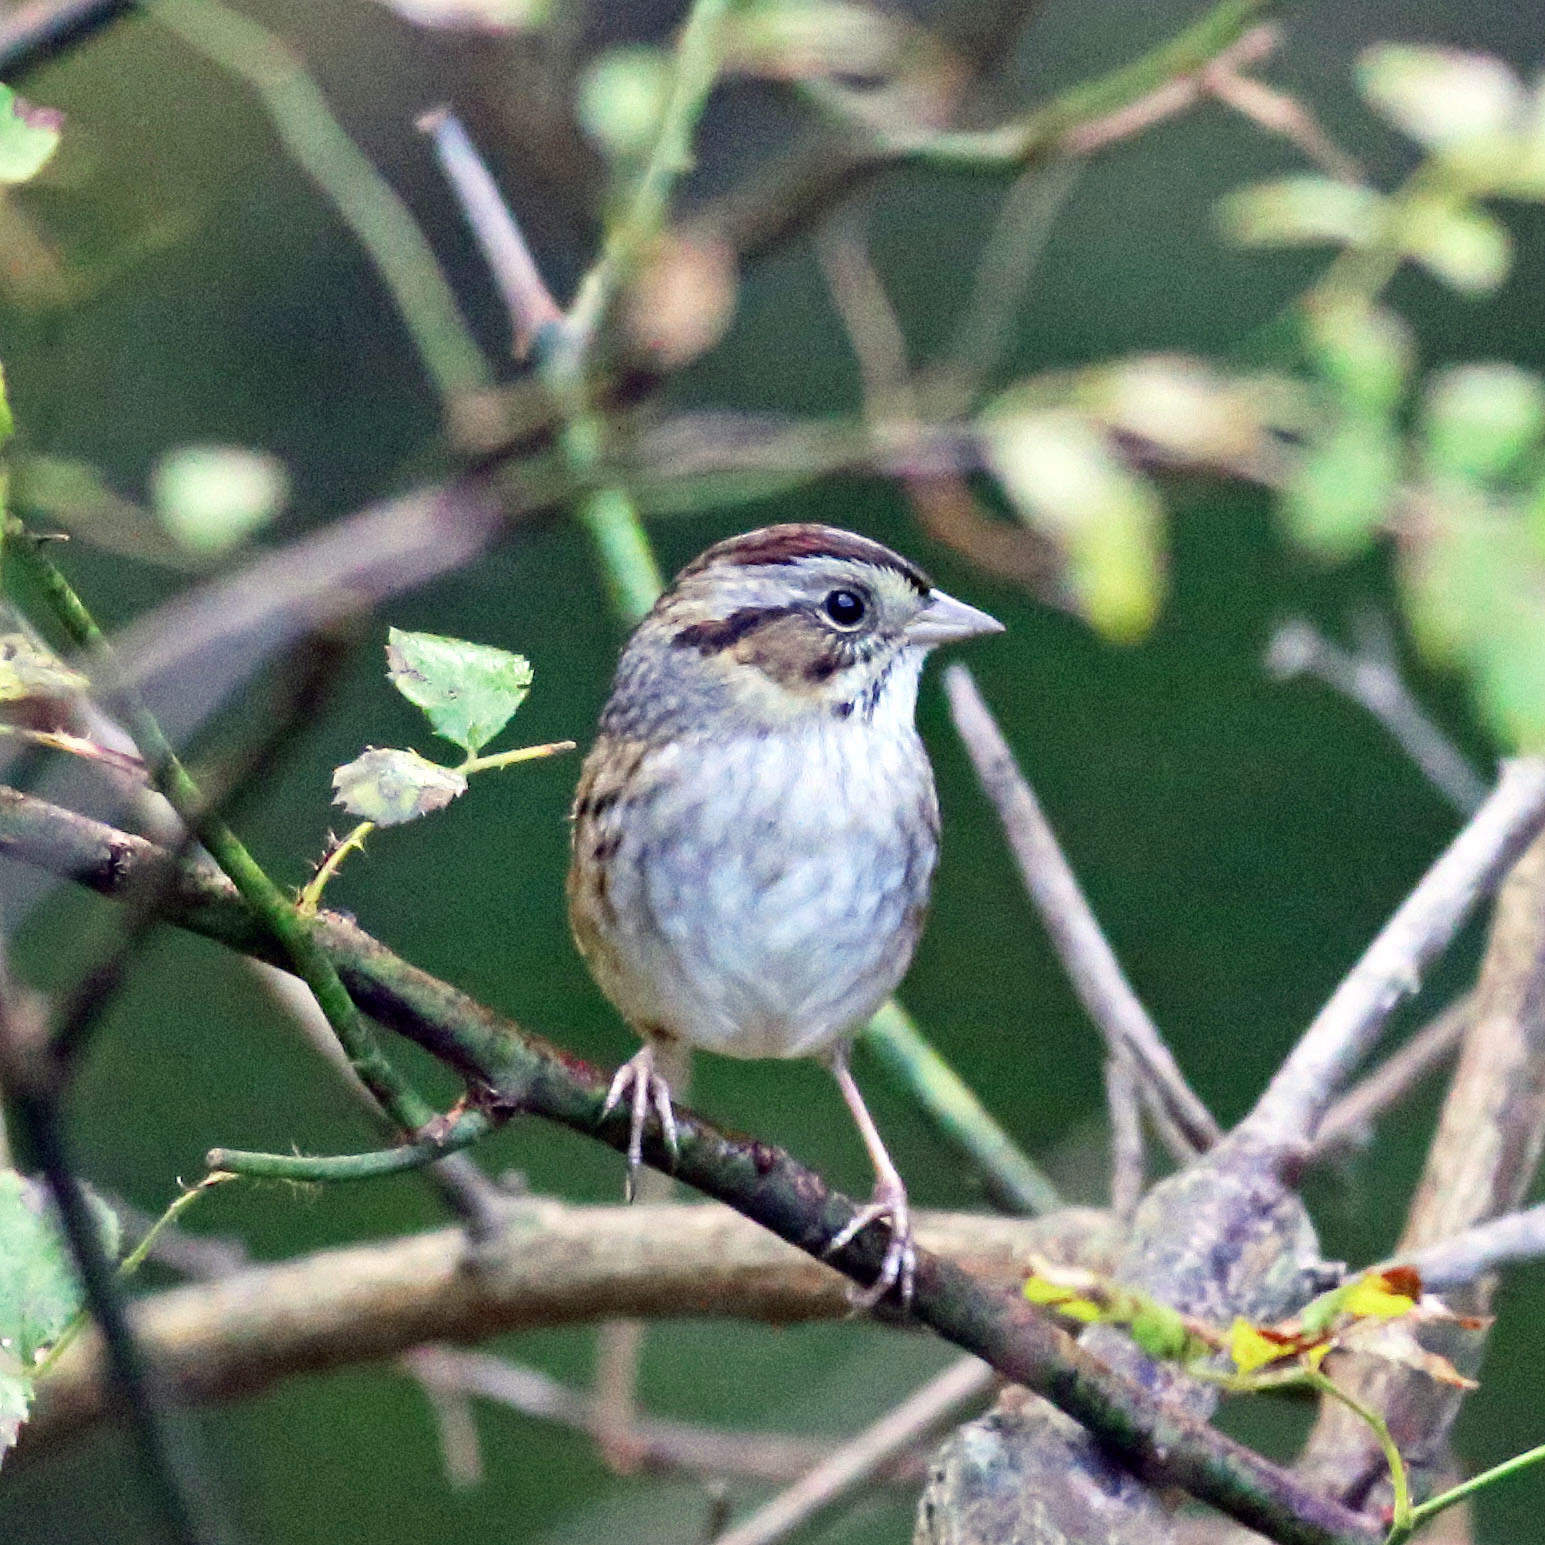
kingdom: Animalia
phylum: Chordata
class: Aves
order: Passeriformes
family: Passerellidae
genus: Melospiza
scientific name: Melospiza georgiana
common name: Swamp sparrow
